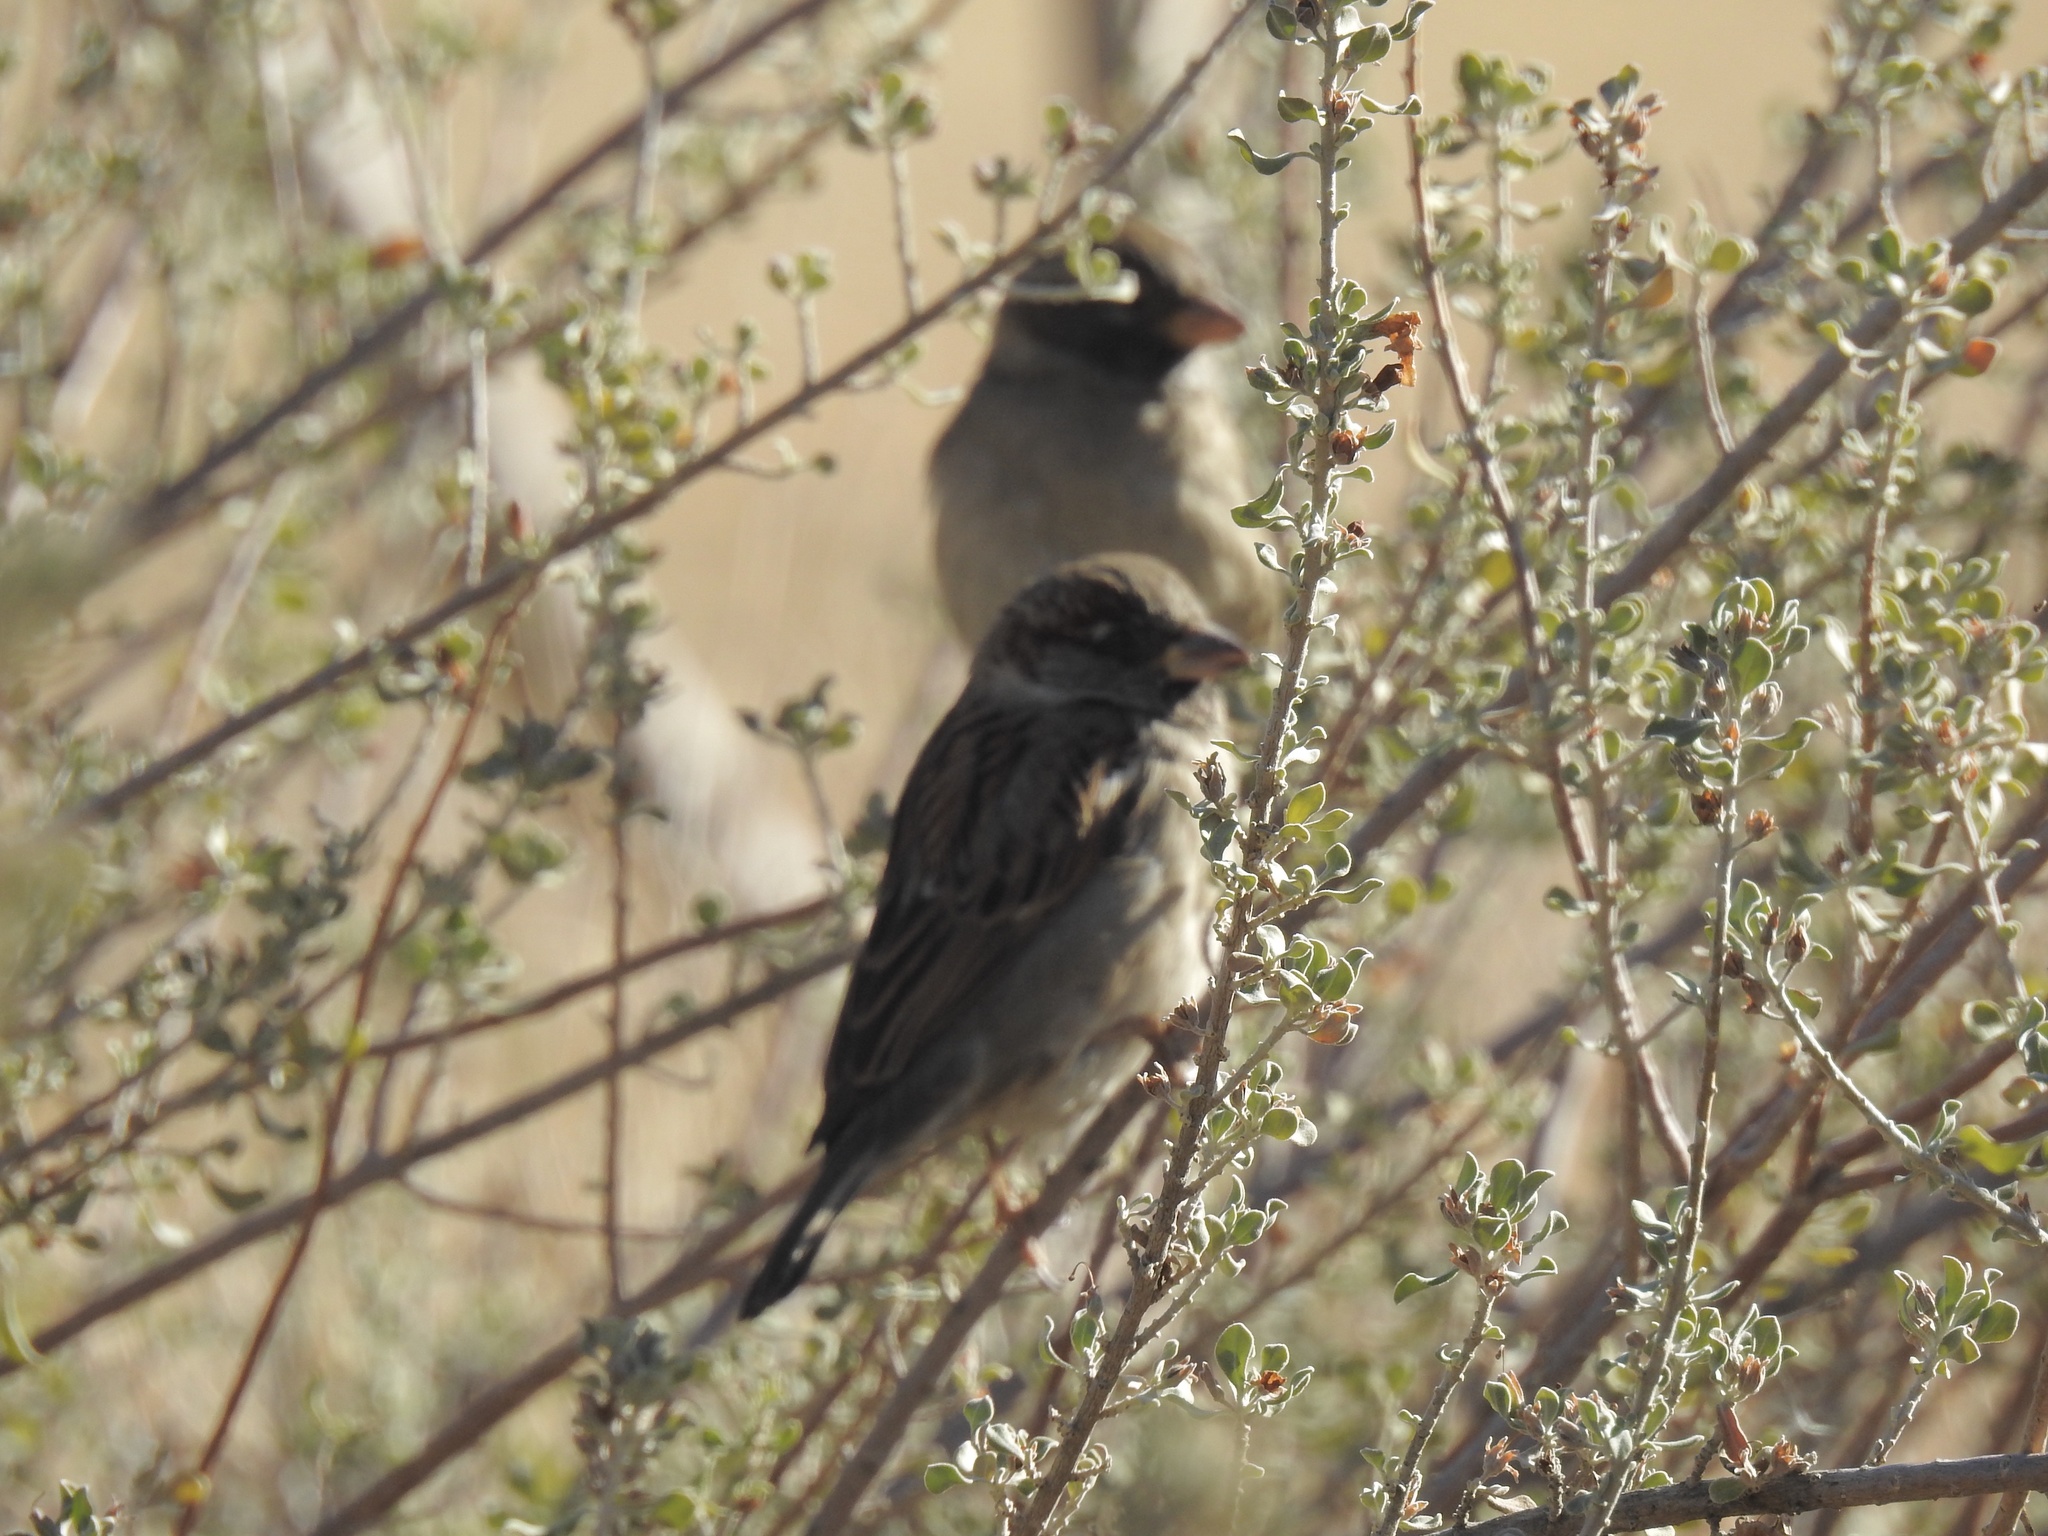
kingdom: Animalia
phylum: Chordata
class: Aves
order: Passeriformes
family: Passeridae
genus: Passer
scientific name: Passer domesticus
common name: House sparrow
